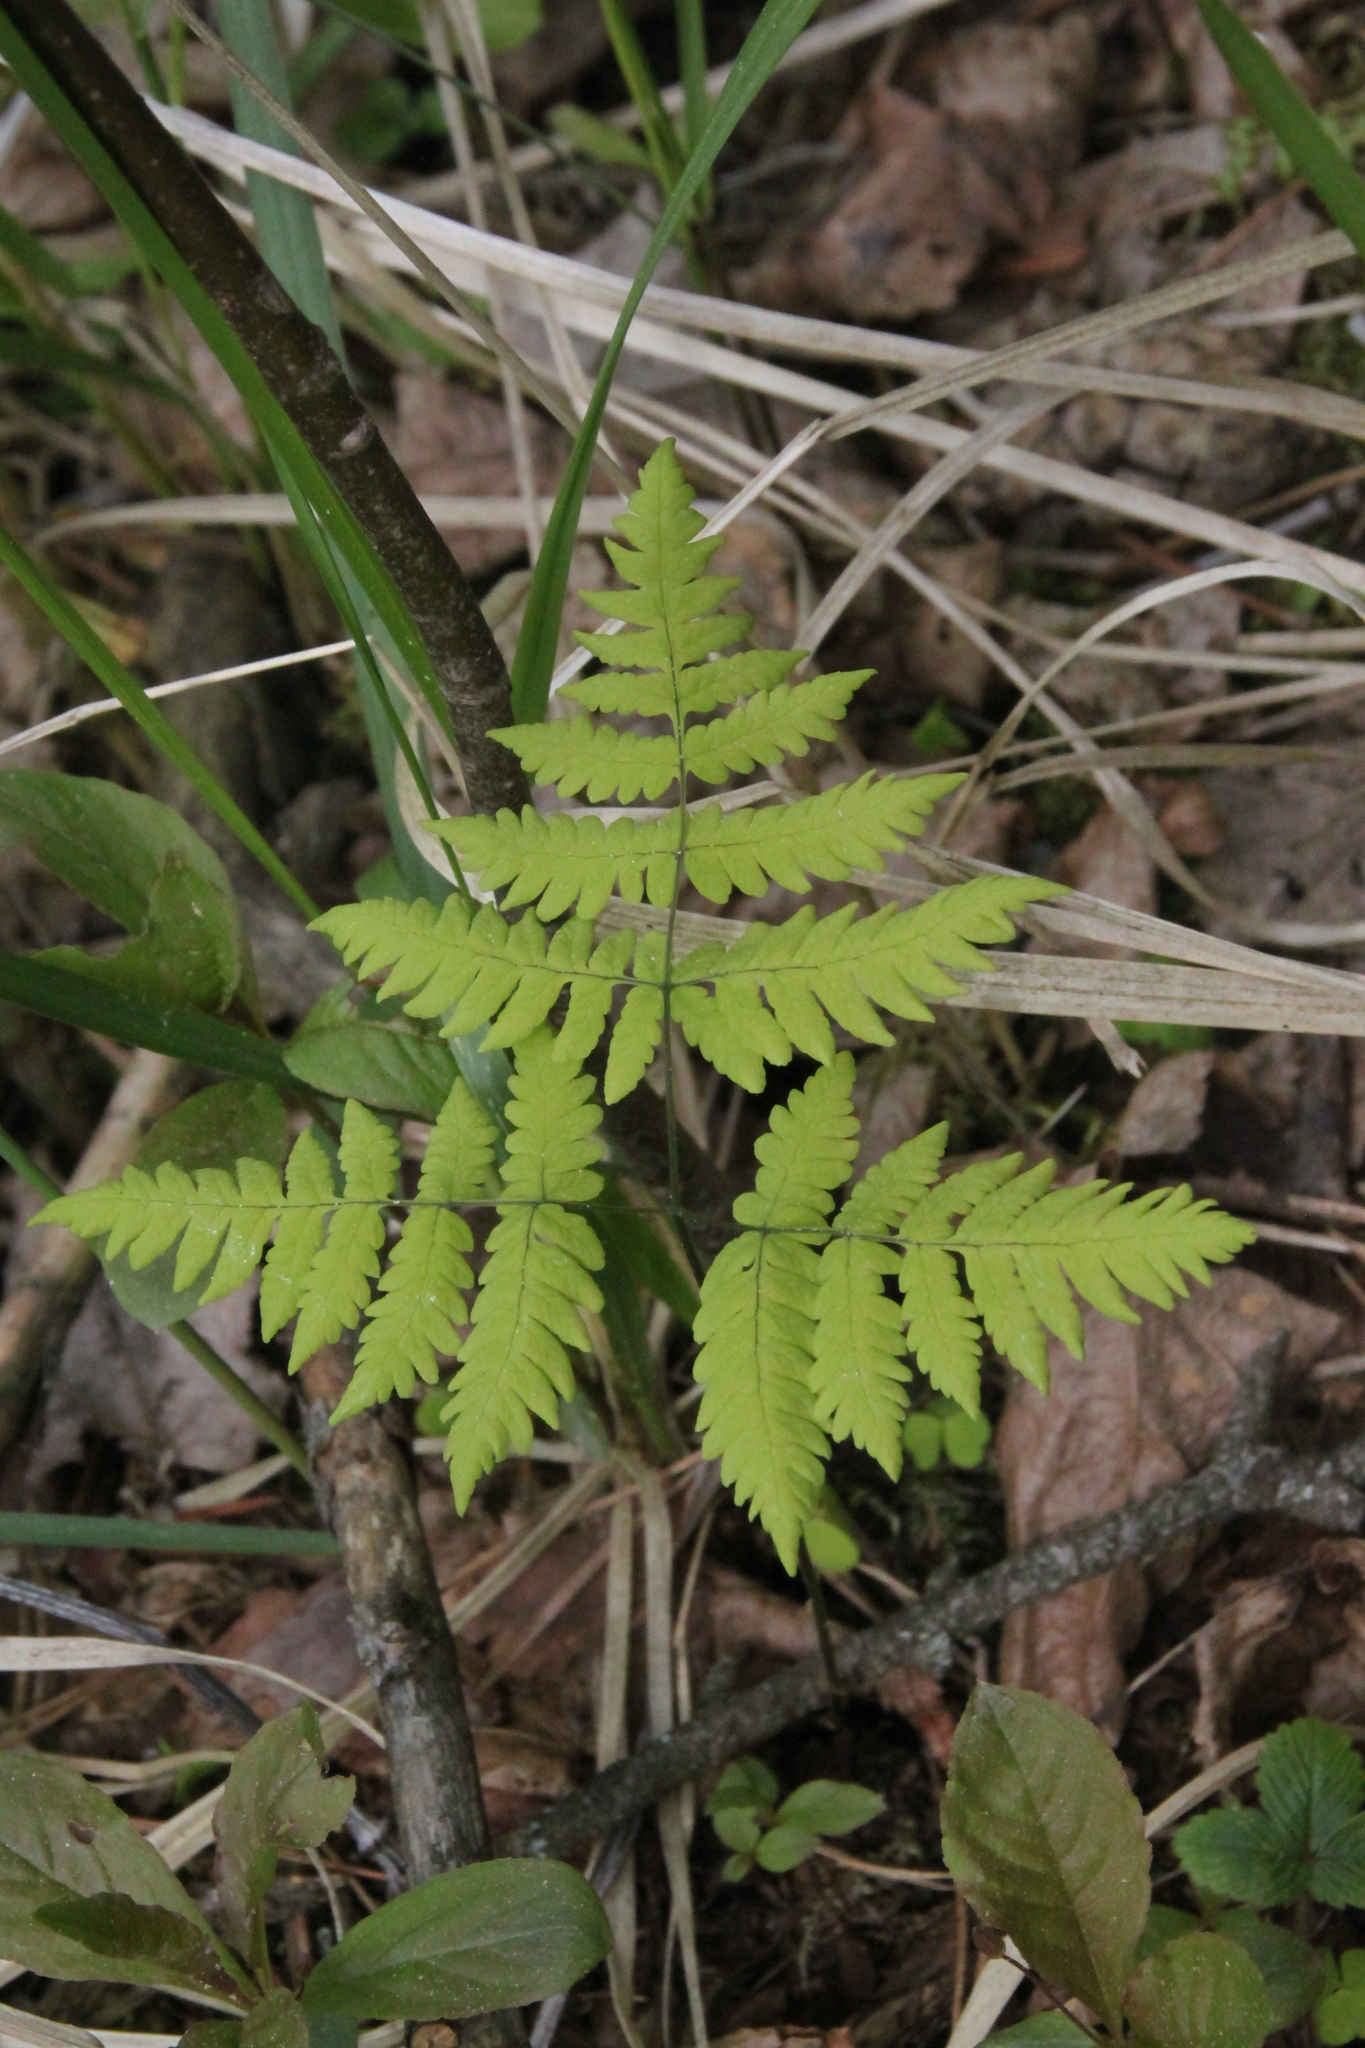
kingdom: Plantae
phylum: Tracheophyta
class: Polypodiopsida
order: Polypodiales
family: Cystopteridaceae
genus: Gymnocarpium
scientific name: Gymnocarpium dryopteris
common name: Oak fern
